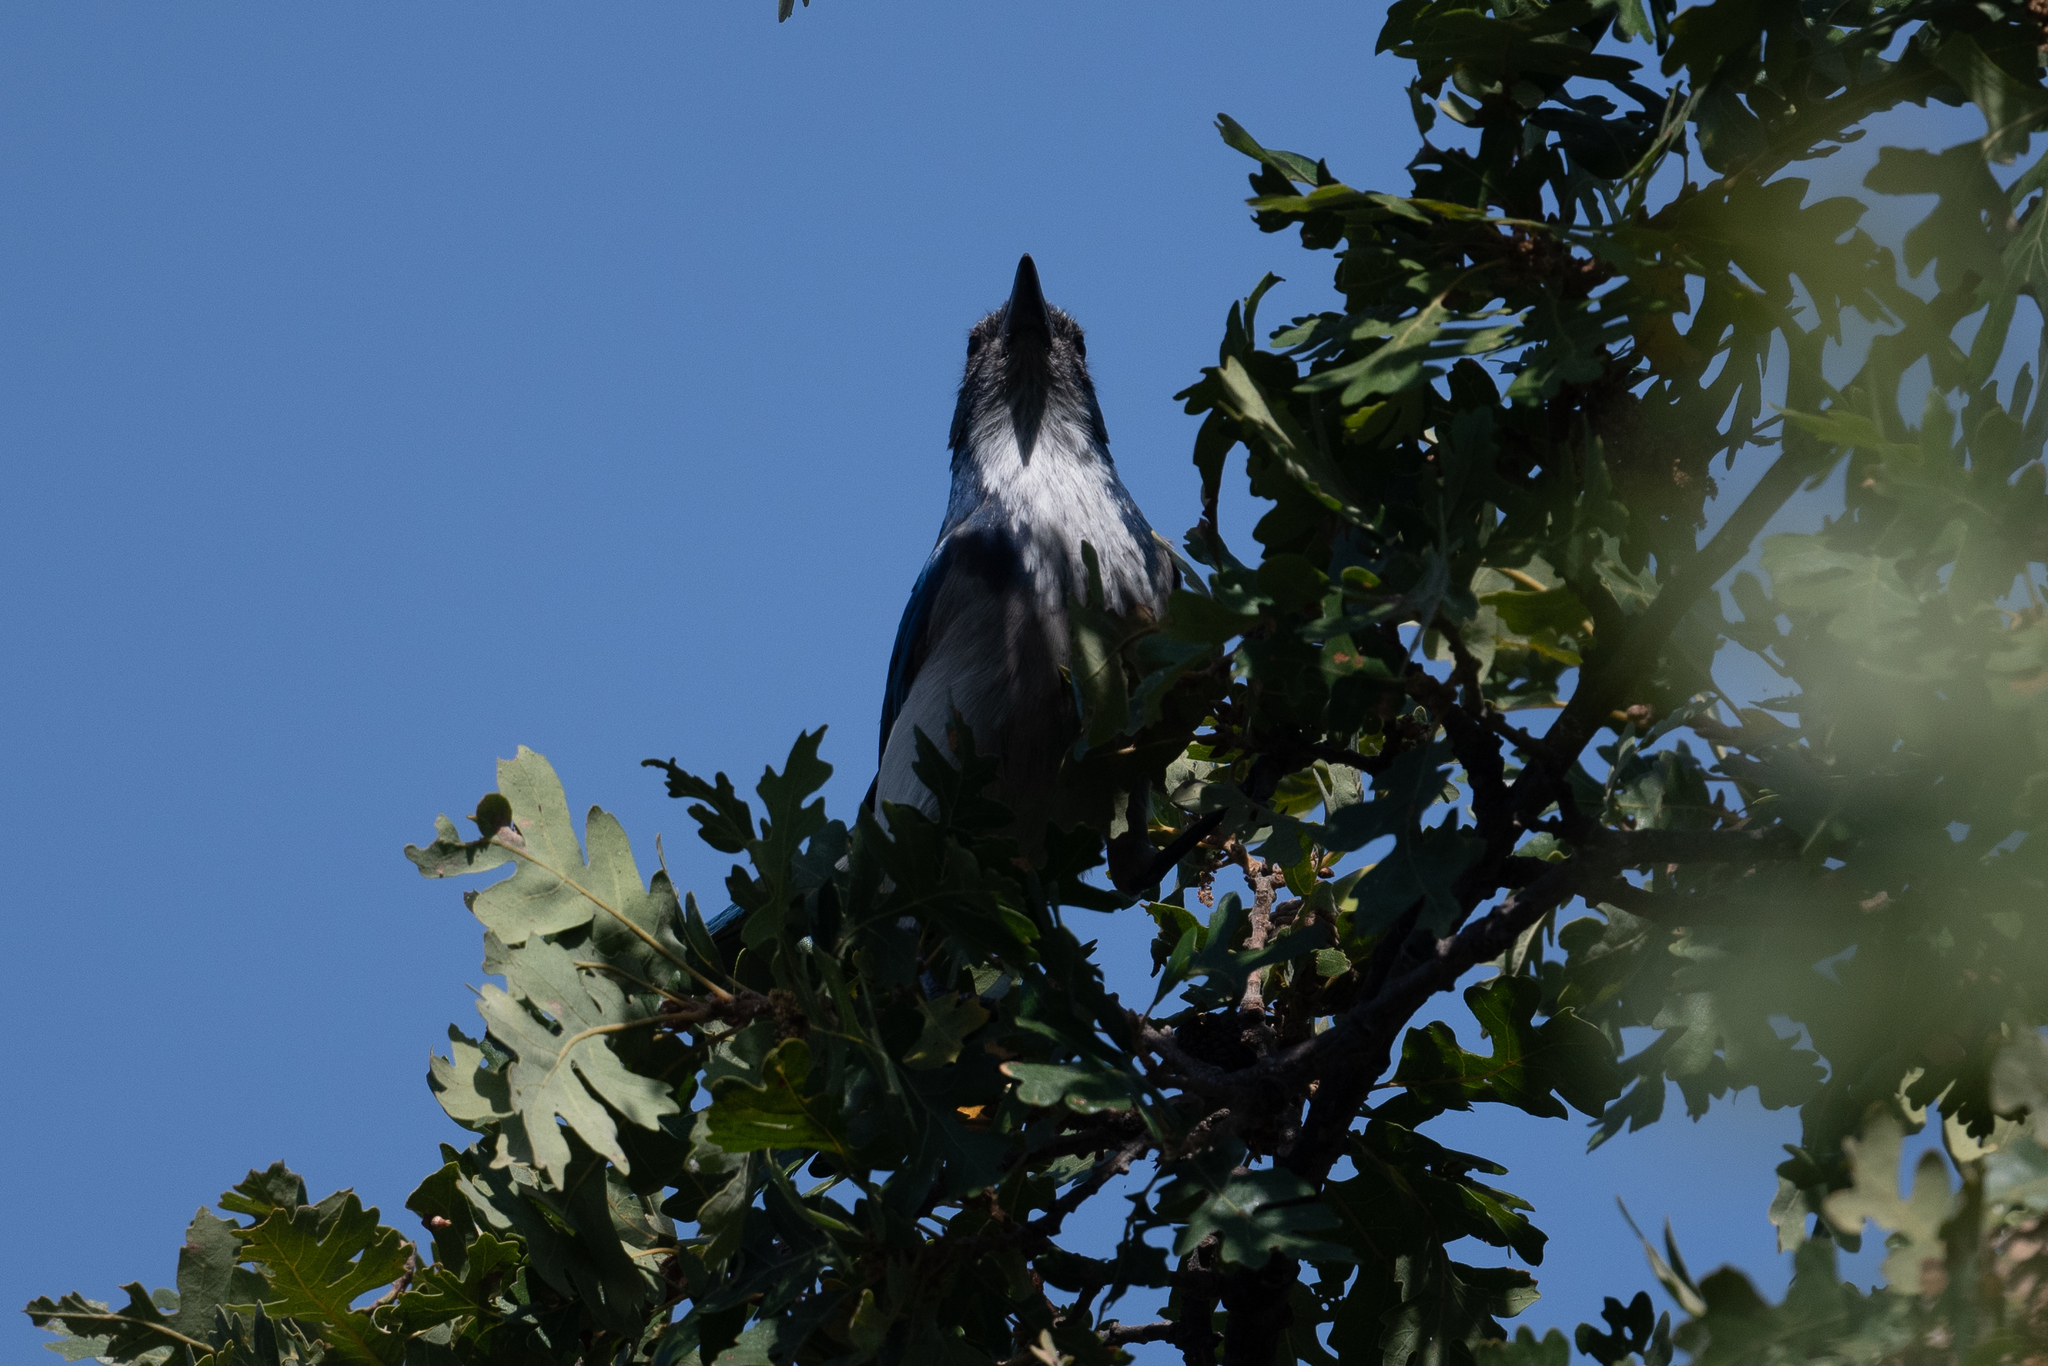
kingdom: Animalia
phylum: Chordata
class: Aves
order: Passeriformes
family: Corvidae
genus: Aphelocoma
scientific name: Aphelocoma californica
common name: California scrub-jay
